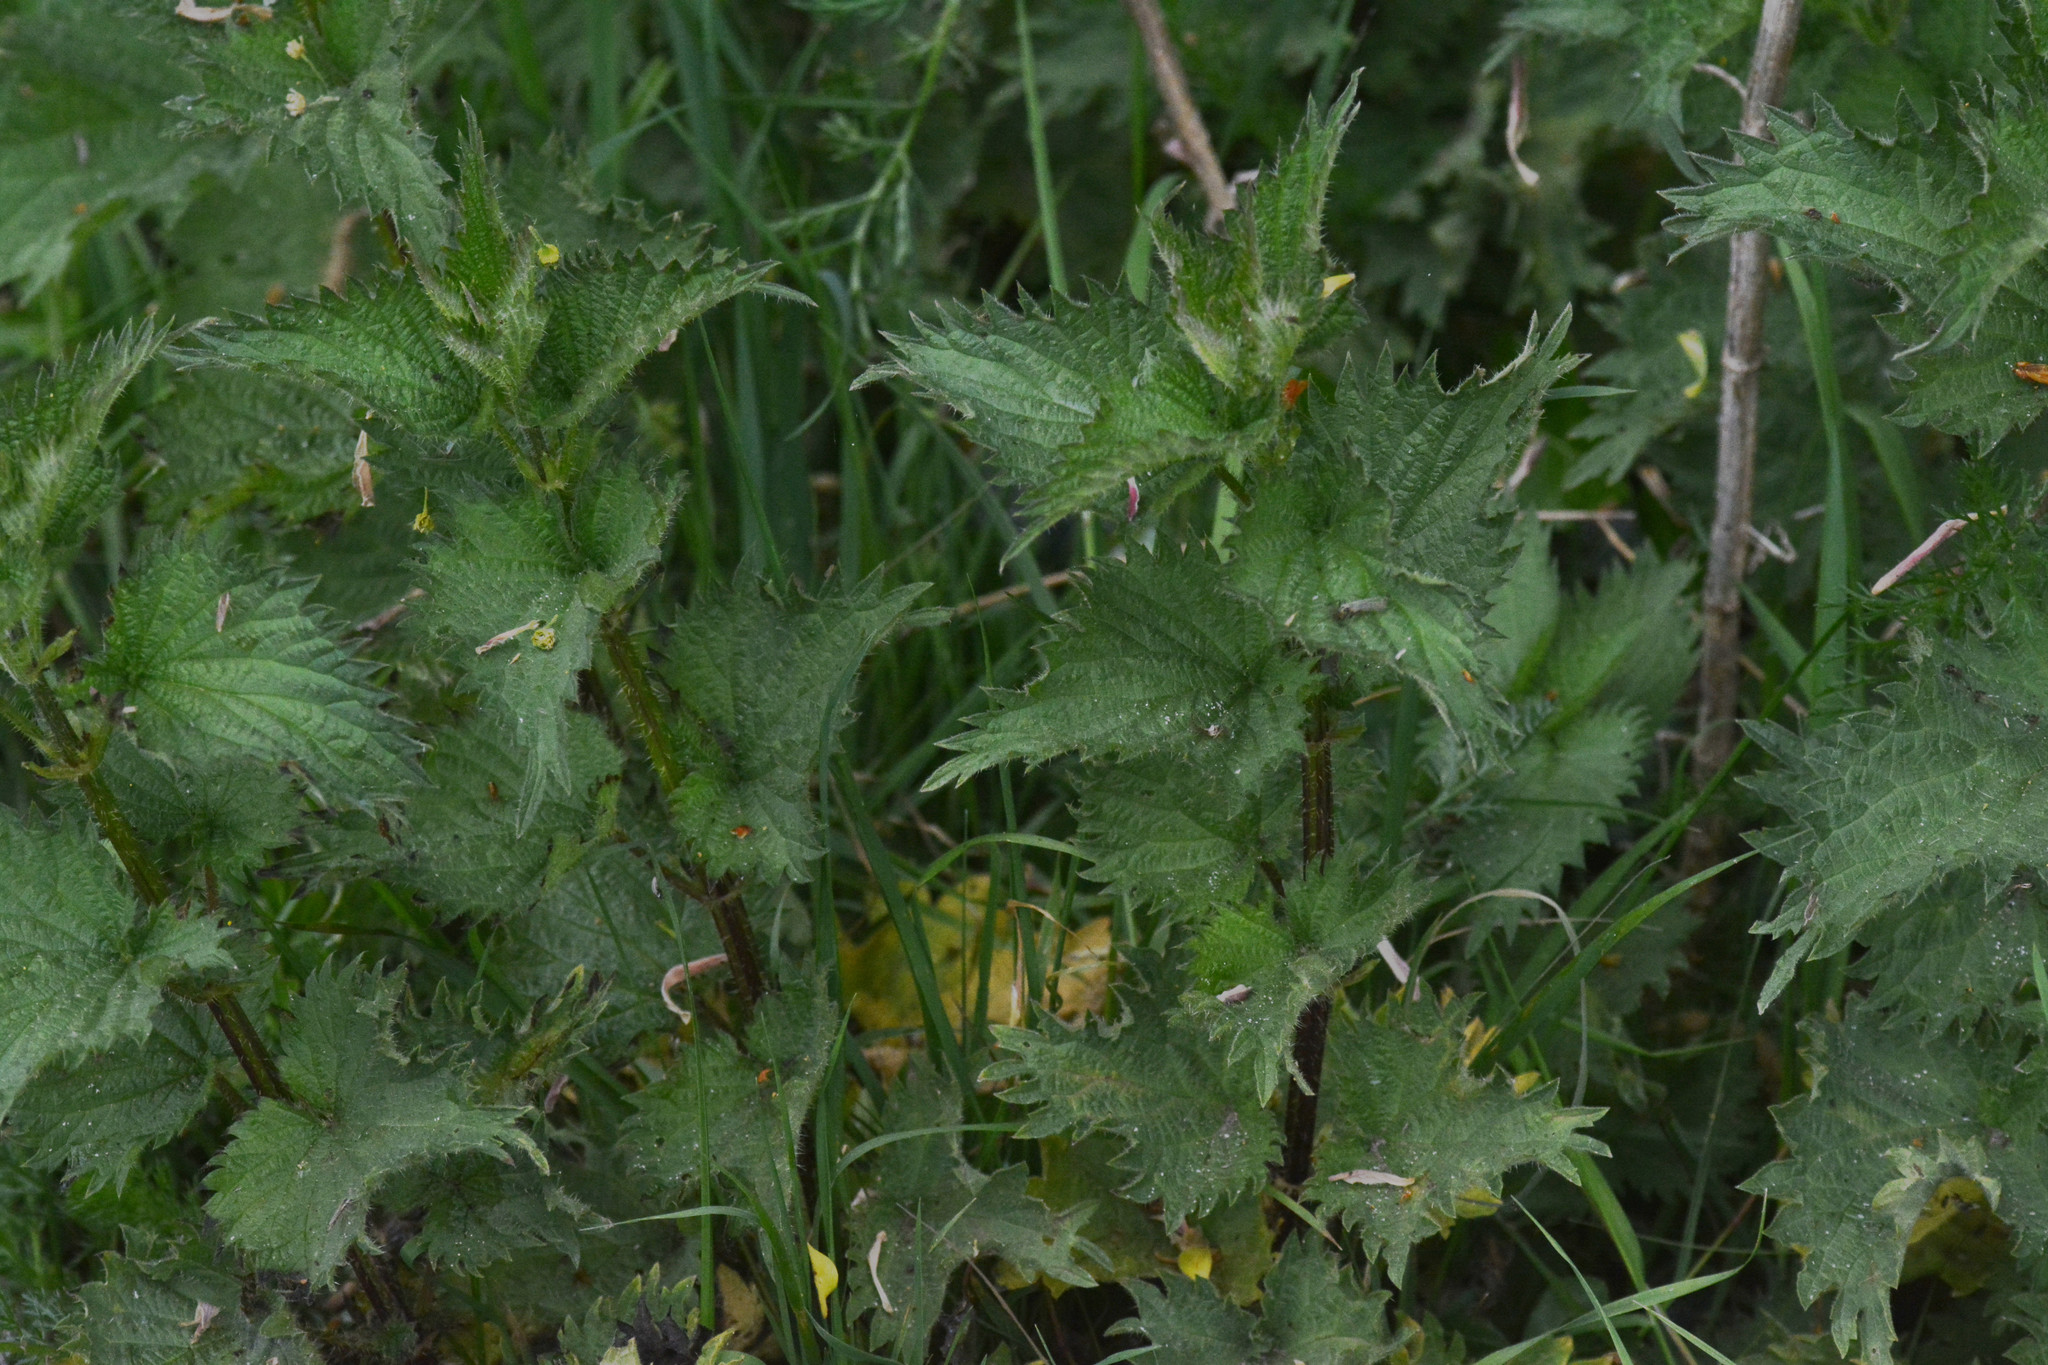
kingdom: Plantae
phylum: Tracheophyta
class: Magnoliopsida
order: Rosales
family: Urticaceae
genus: Urtica
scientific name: Urtica dioica
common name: Common nettle
